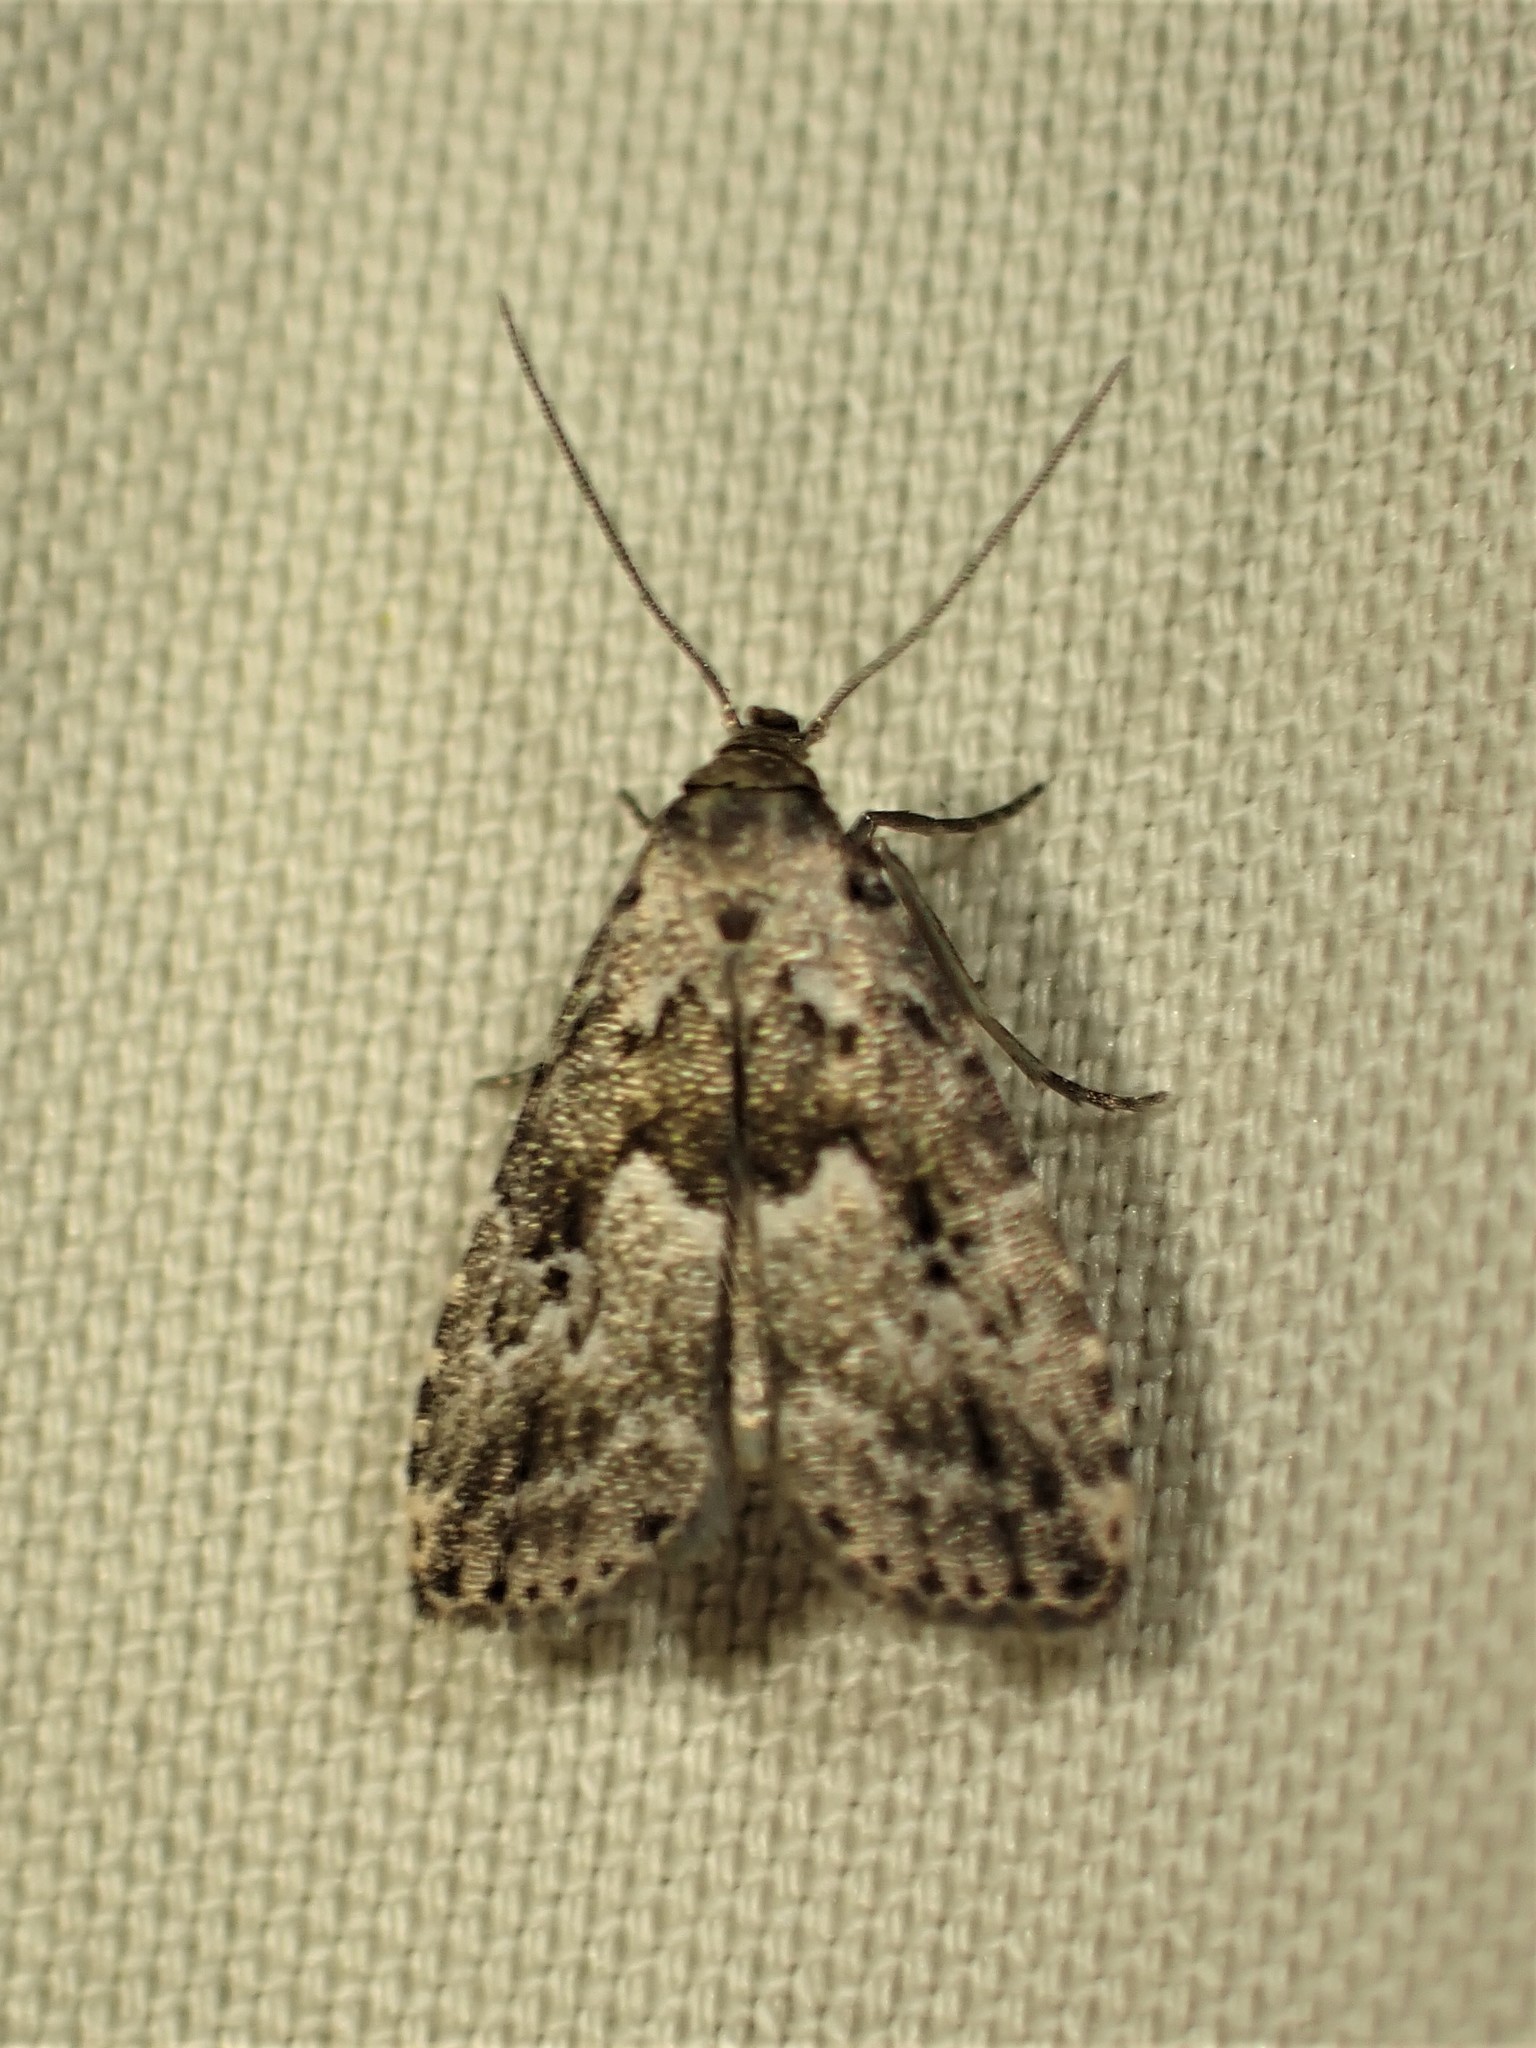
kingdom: Animalia
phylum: Arthropoda
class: Insecta
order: Lepidoptera
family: Erebidae
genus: Hypenodes
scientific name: Hypenodes franclemonti
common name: Franclemont's hypenodes moth
